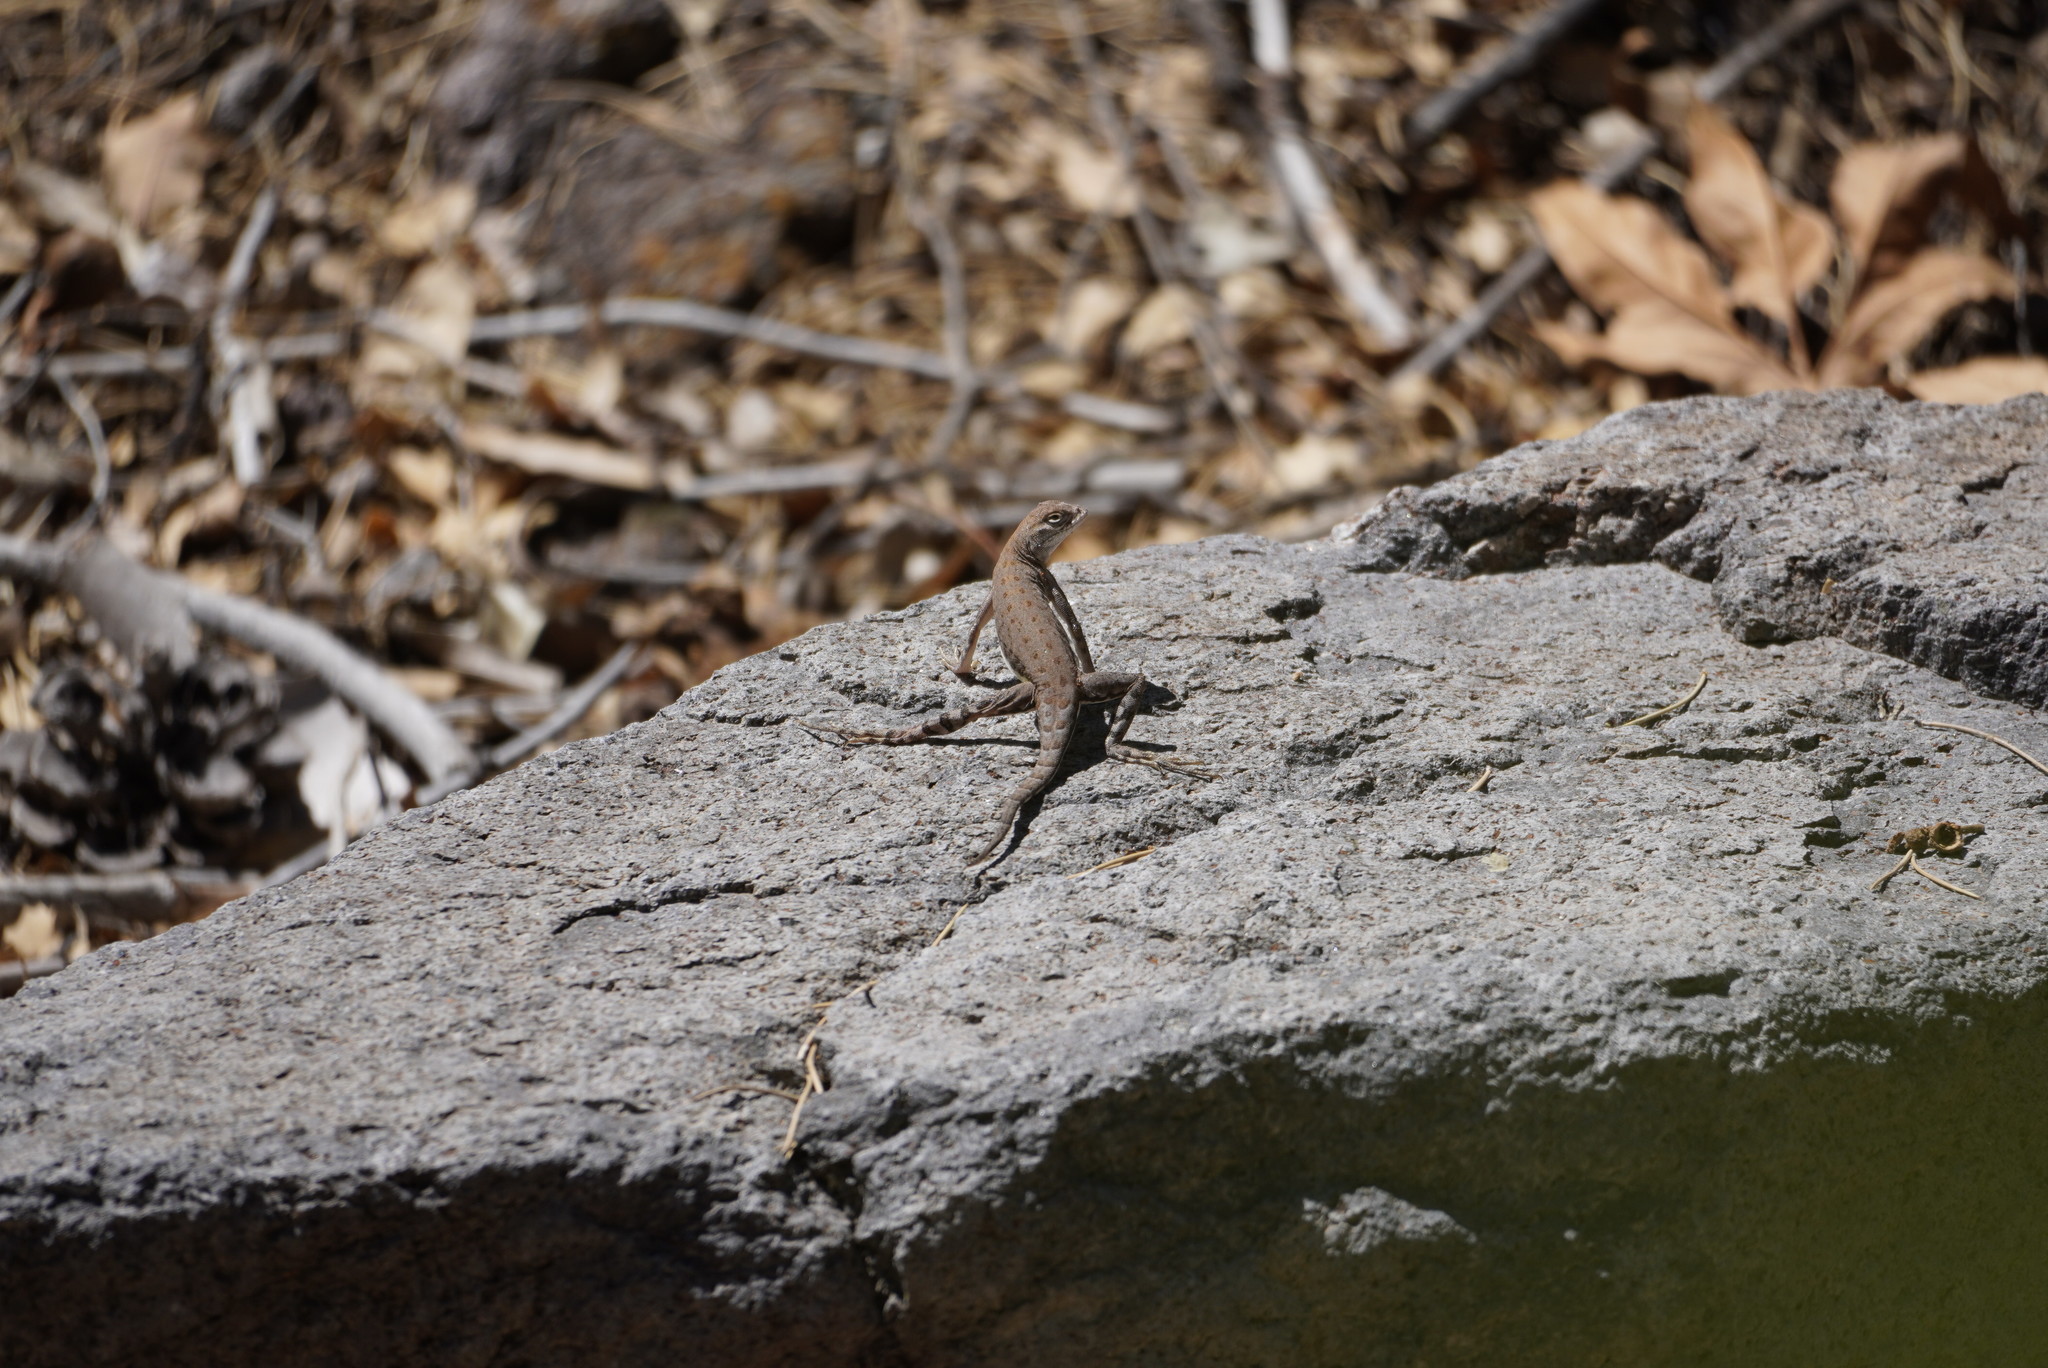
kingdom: Animalia
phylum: Chordata
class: Squamata
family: Phrynosomatidae
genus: Cophosaurus
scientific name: Cophosaurus texanus
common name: Greater earless lizard
